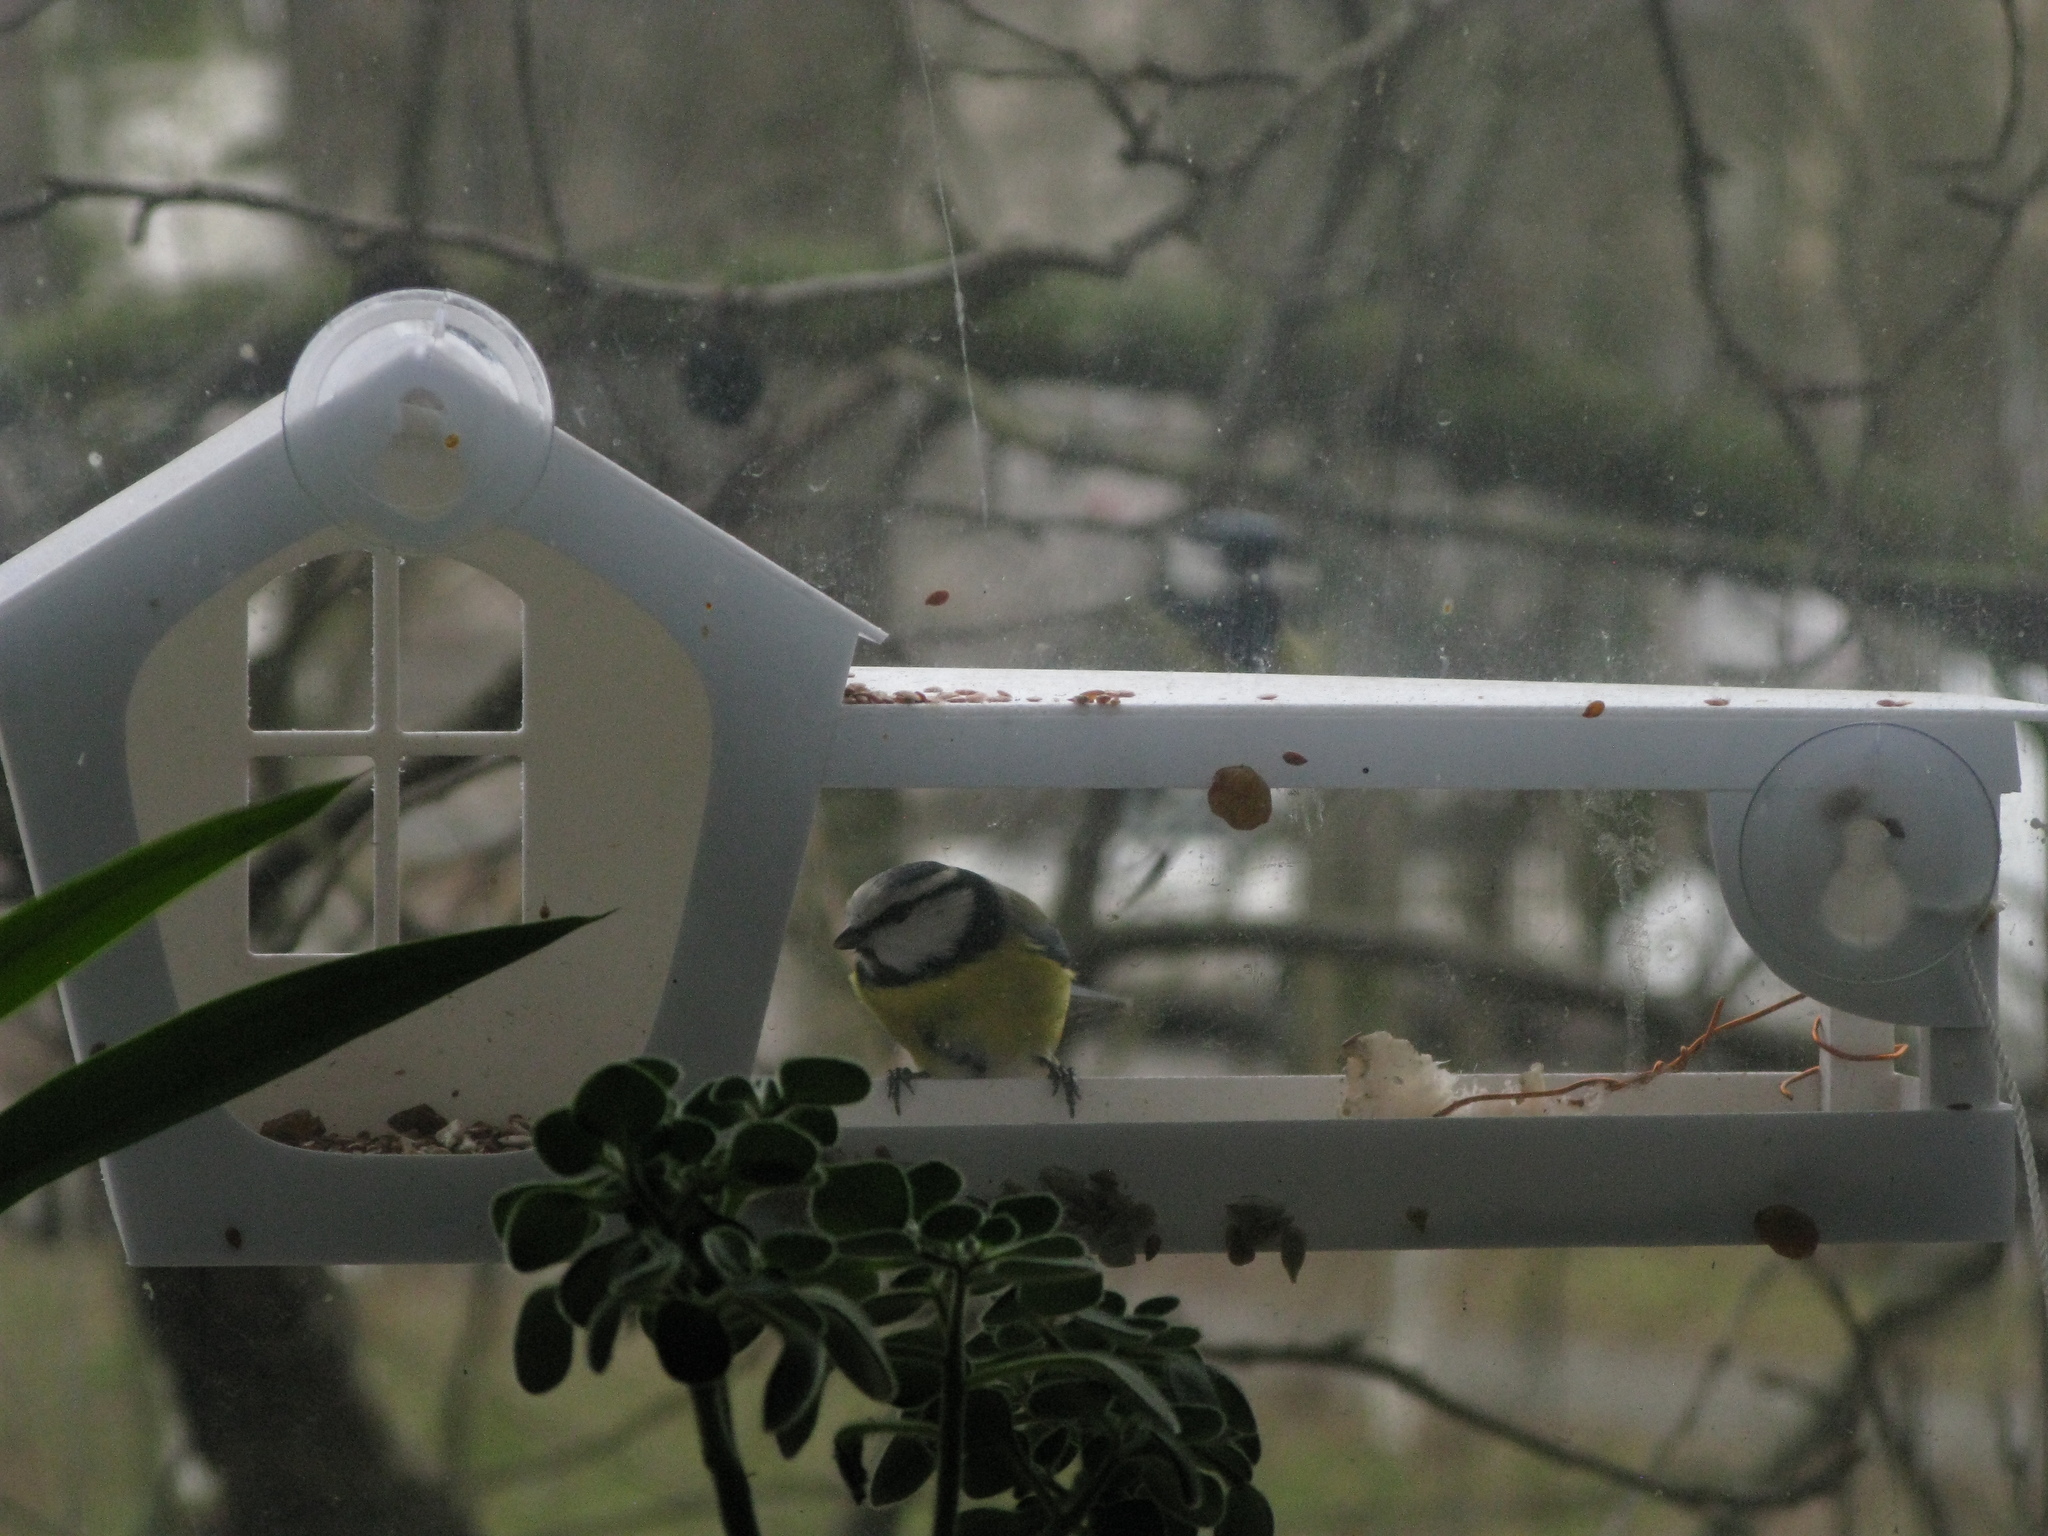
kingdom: Animalia
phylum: Chordata
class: Aves
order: Passeriformes
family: Paridae
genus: Cyanistes
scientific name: Cyanistes caeruleus
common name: Eurasian blue tit
